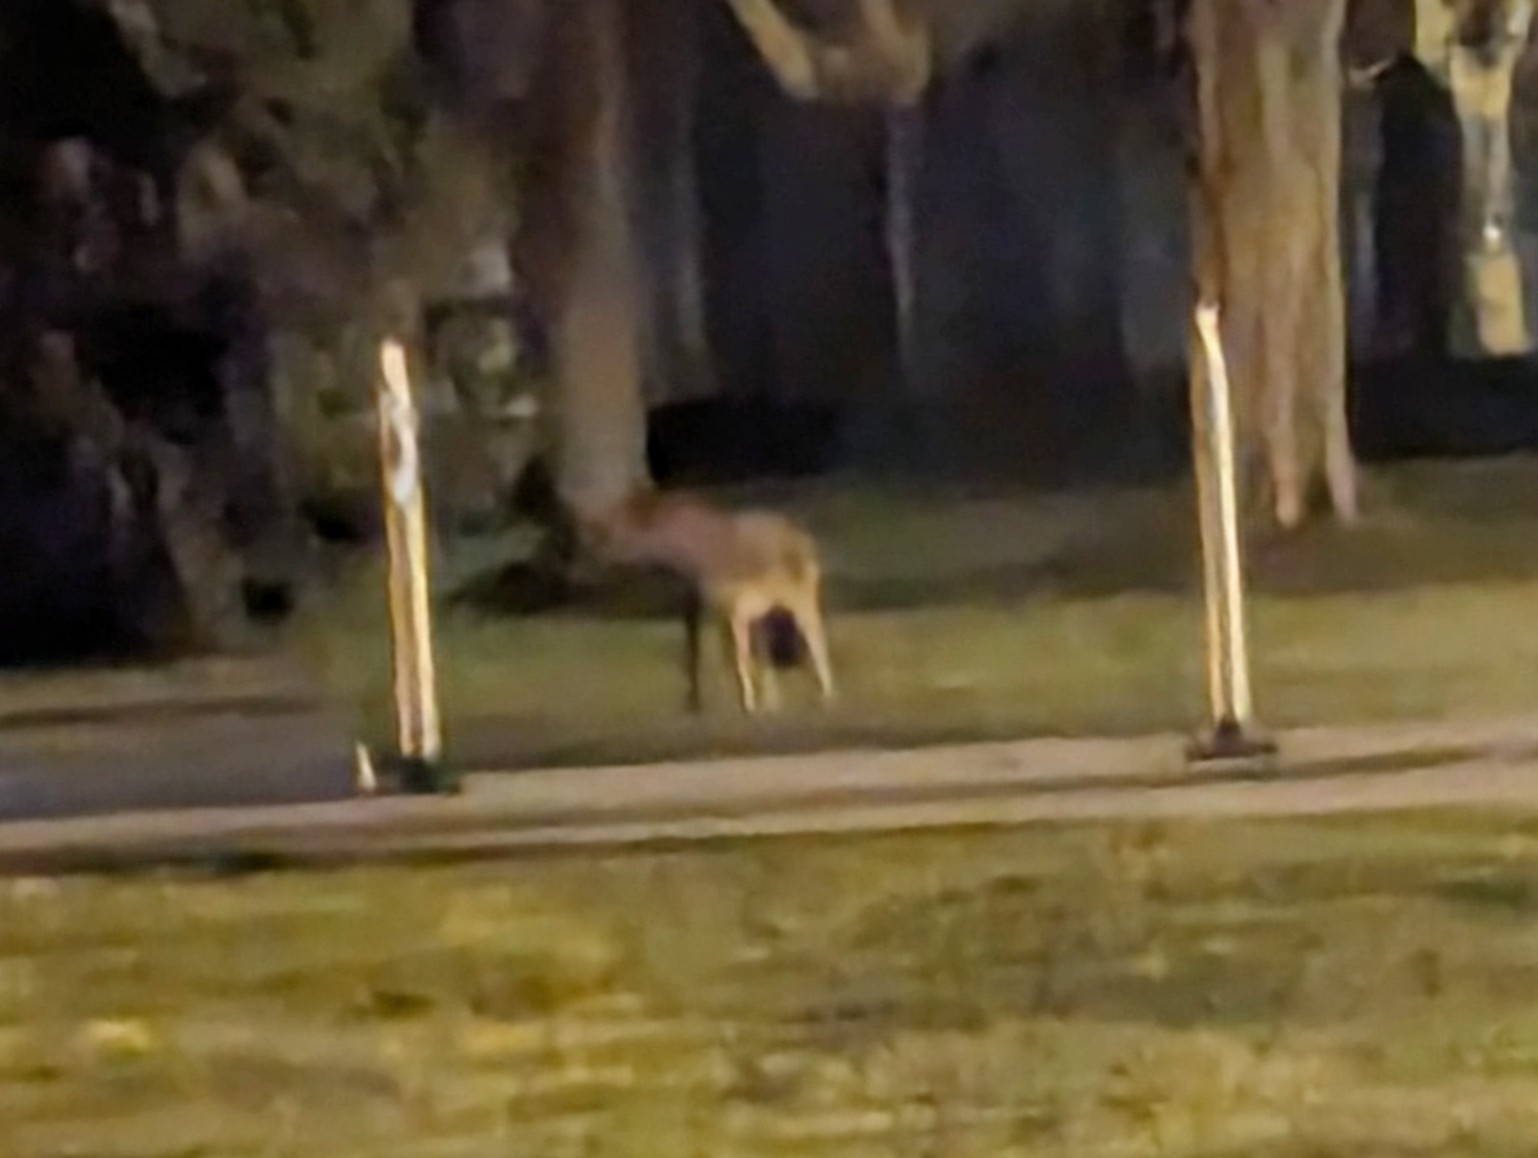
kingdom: Animalia
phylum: Chordata
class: Mammalia
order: Carnivora
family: Canidae
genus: Canis
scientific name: Canis latrans
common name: Coyote
